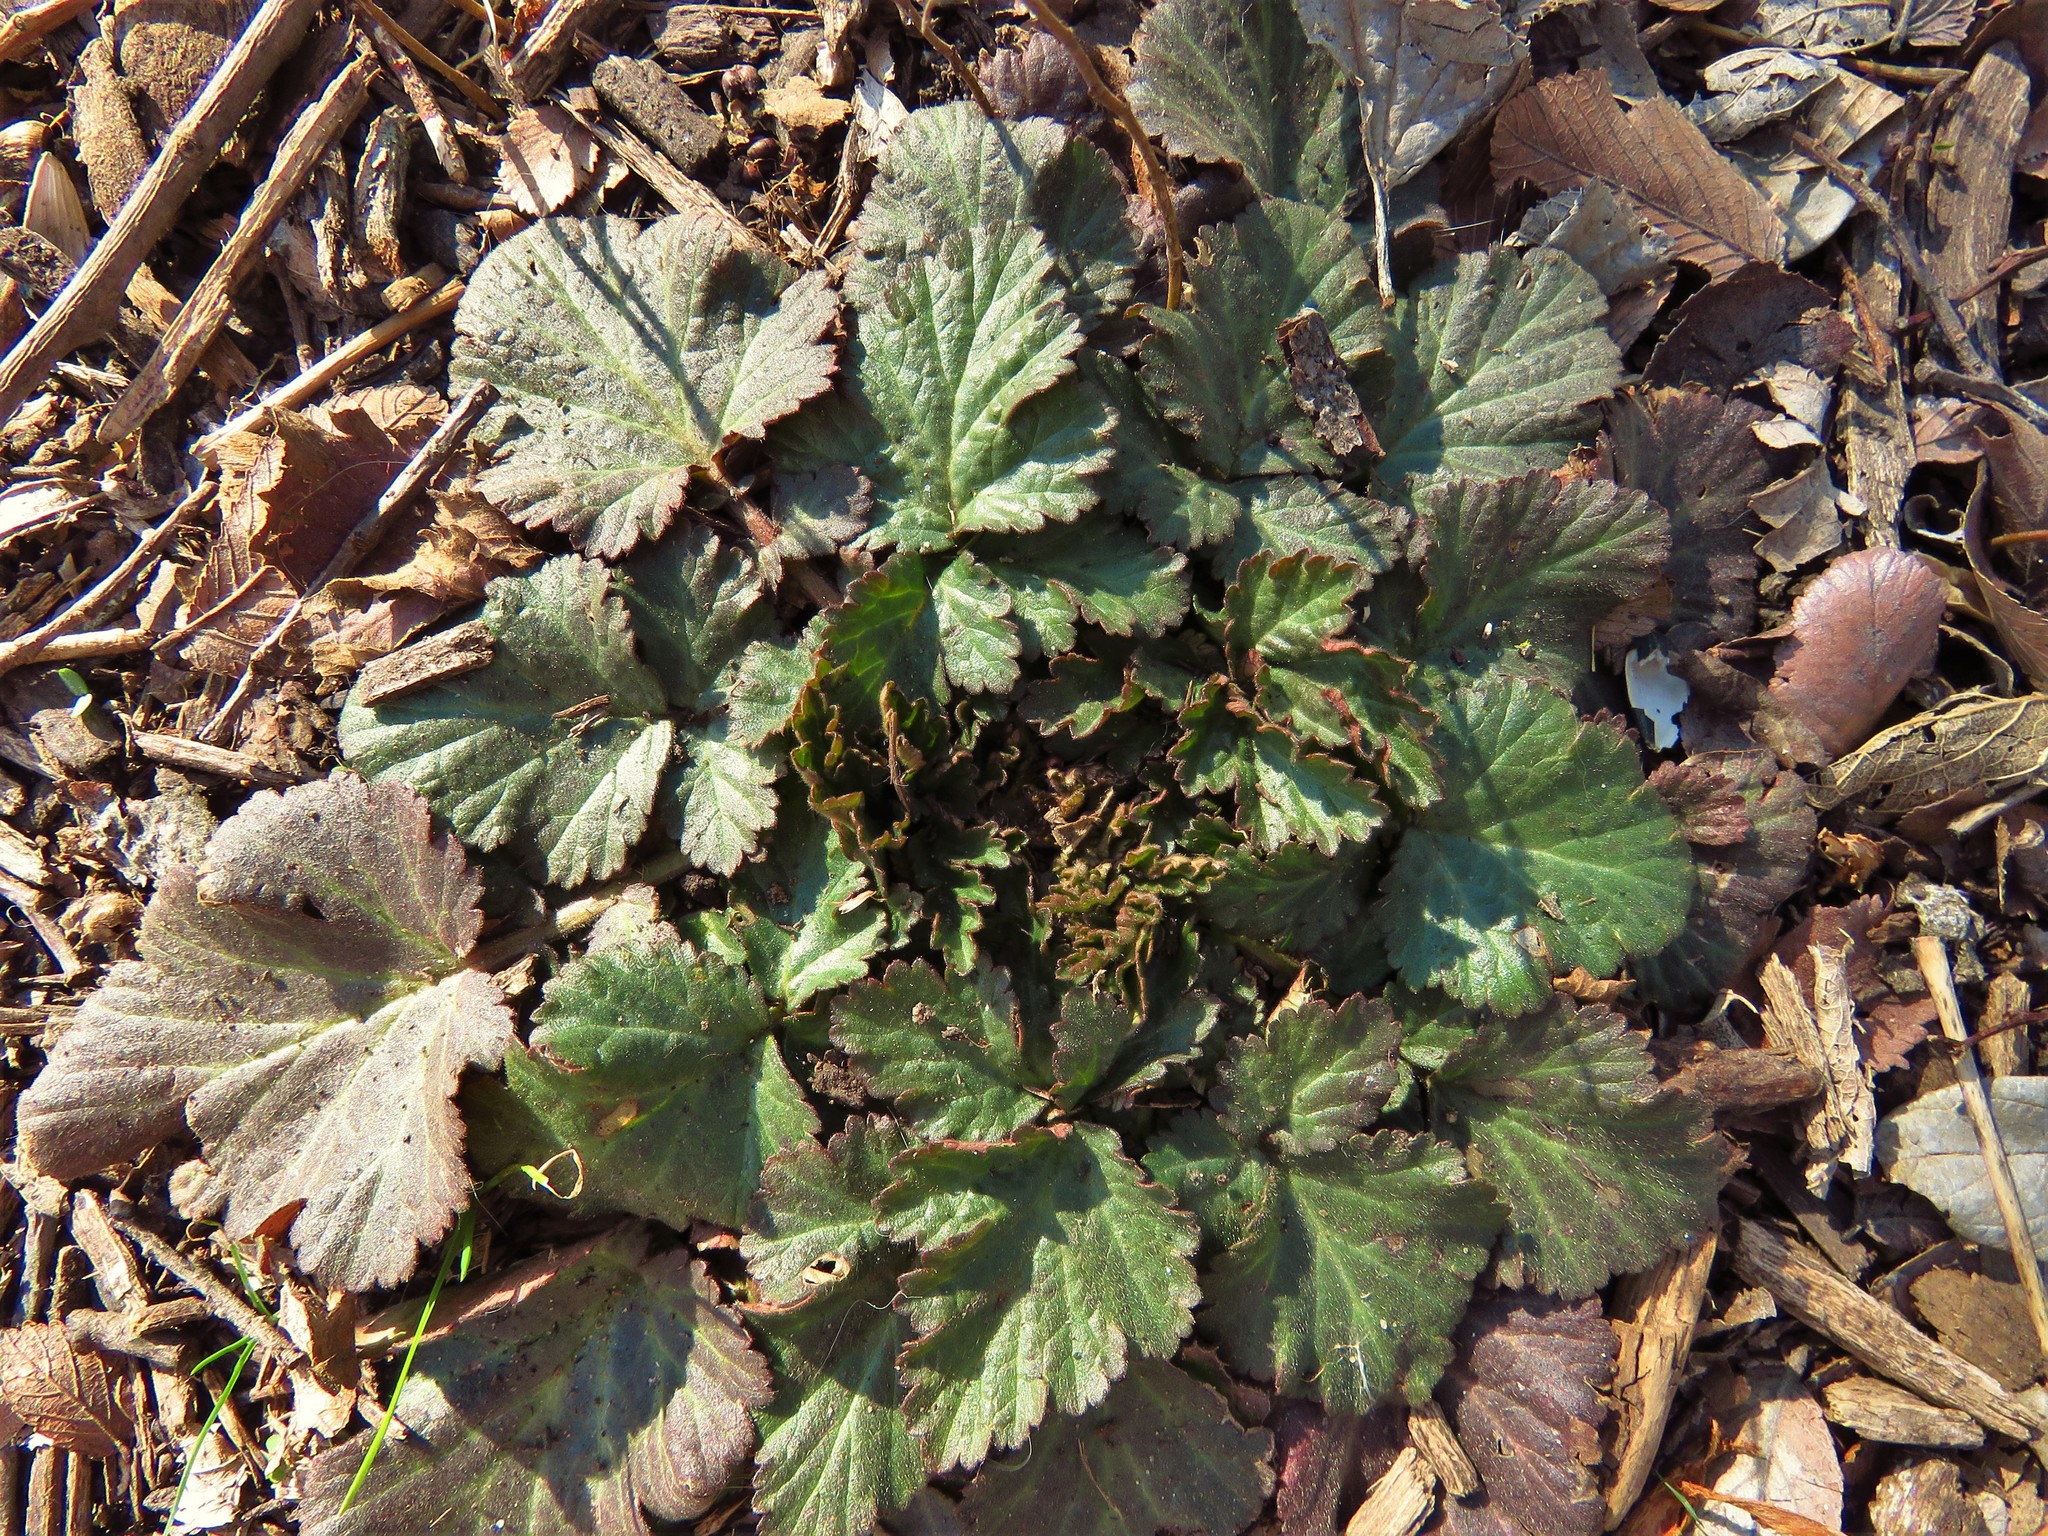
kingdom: Plantae
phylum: Tracheophyta
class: Magnoliopsida
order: Rosales
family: Rosaceae
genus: Geum
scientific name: Geum canadense
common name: White avens
